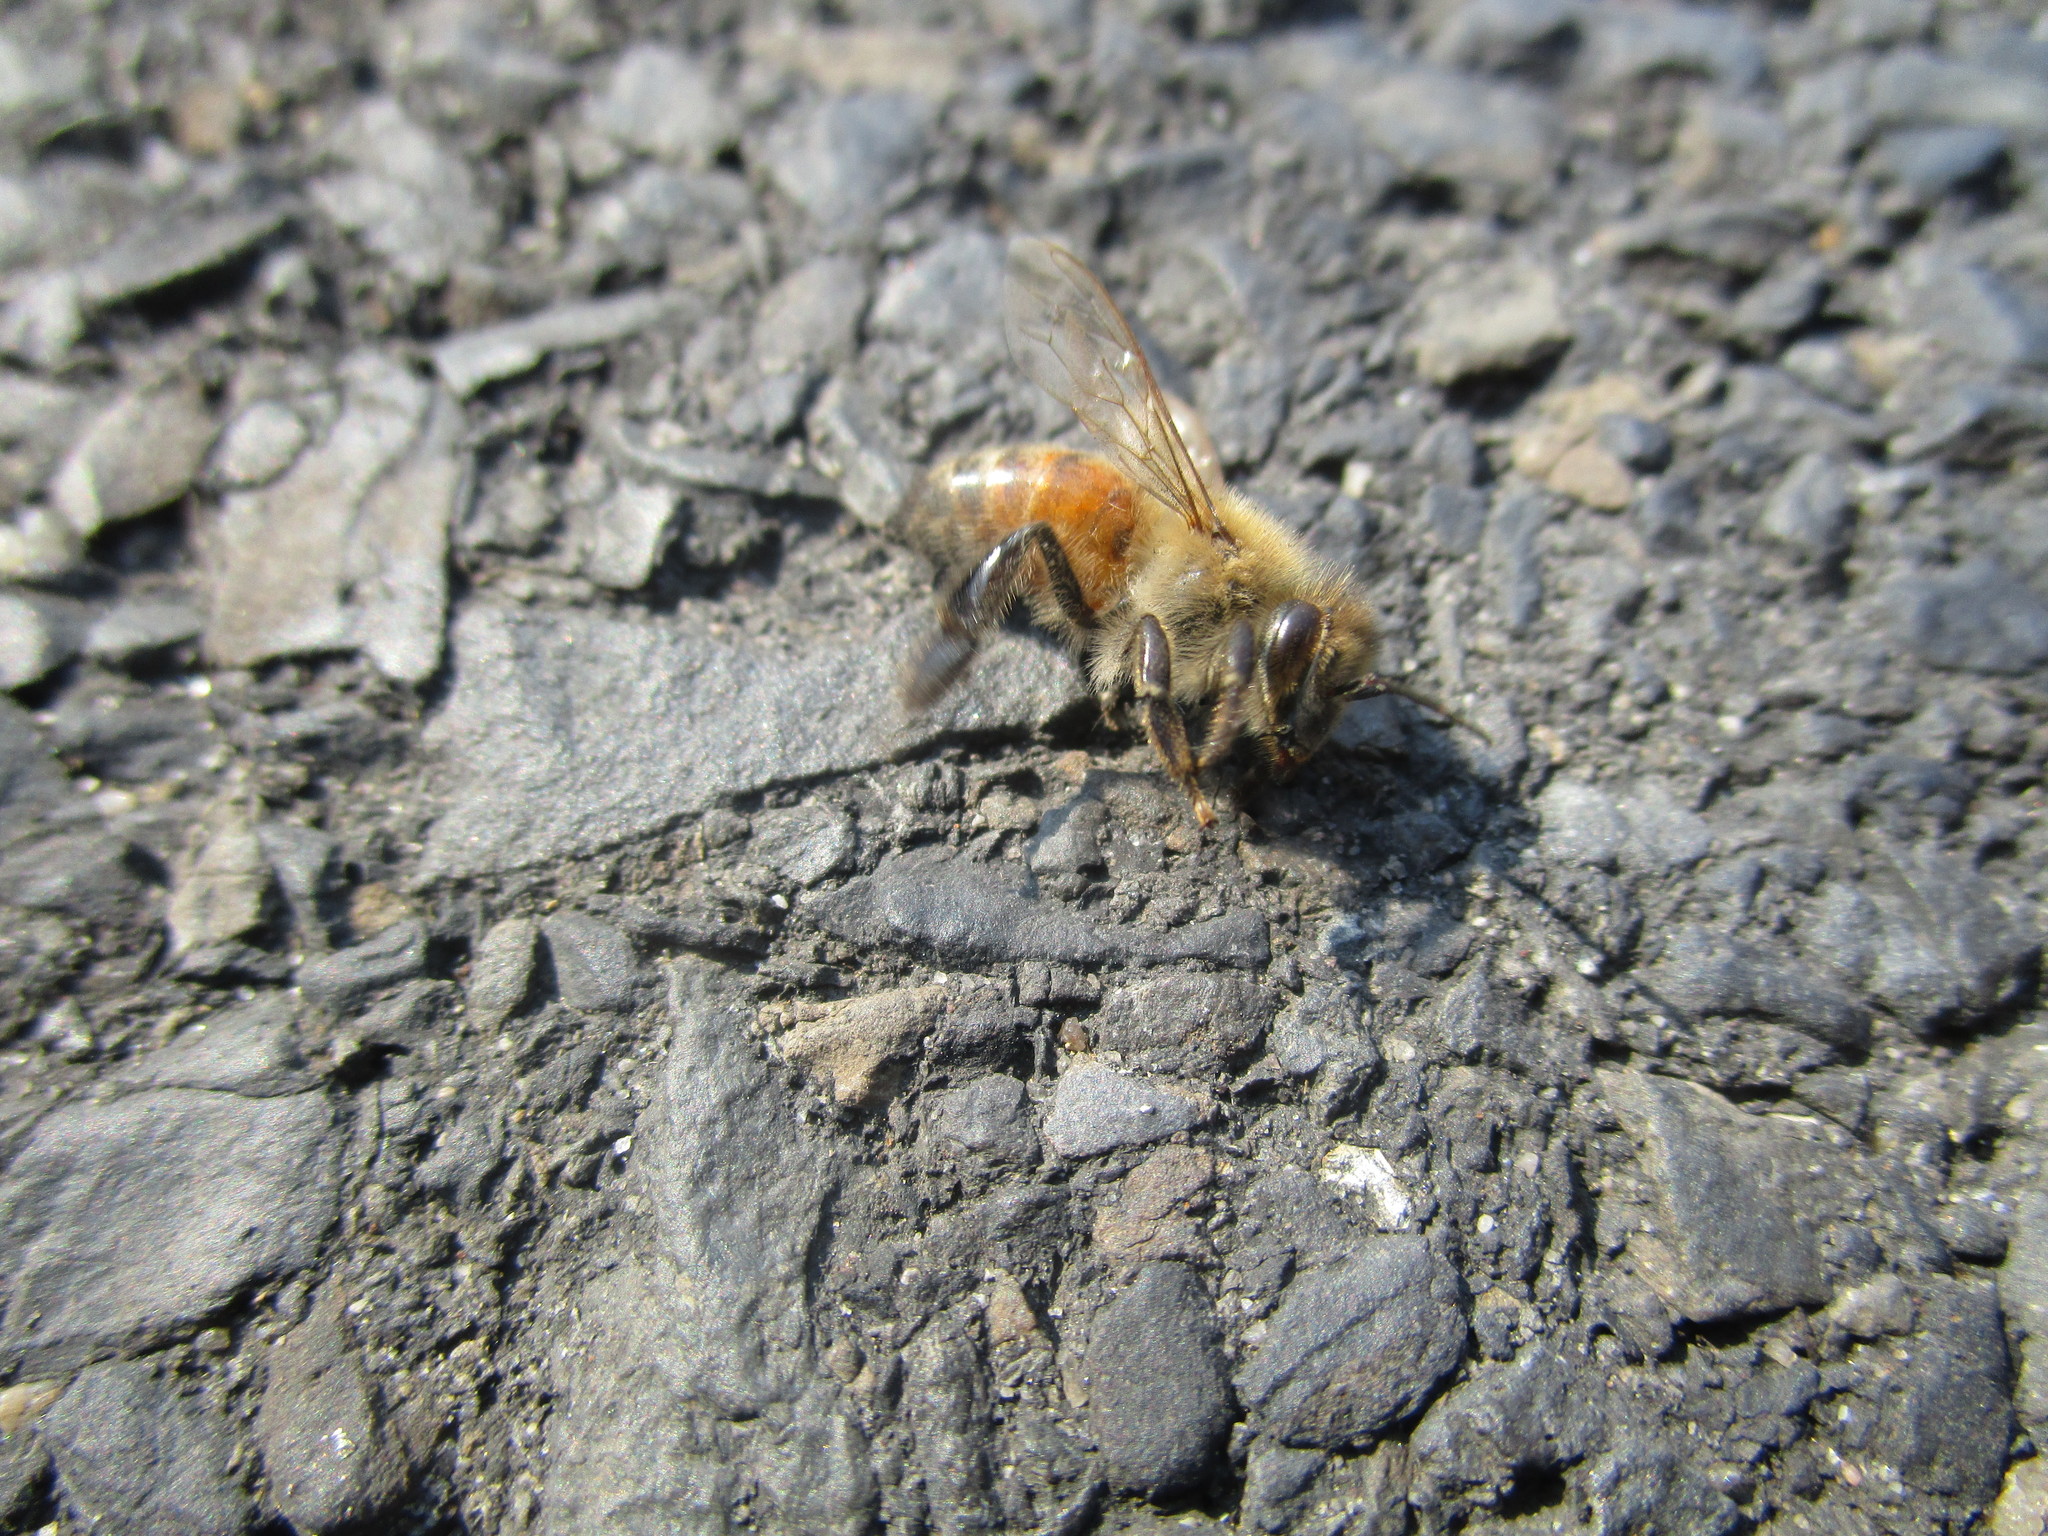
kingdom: Animalia
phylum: Arthropoda
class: Insecta
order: Hymenoptera
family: Apidae
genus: Apis
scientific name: Apis mellifera
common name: Honey bee
